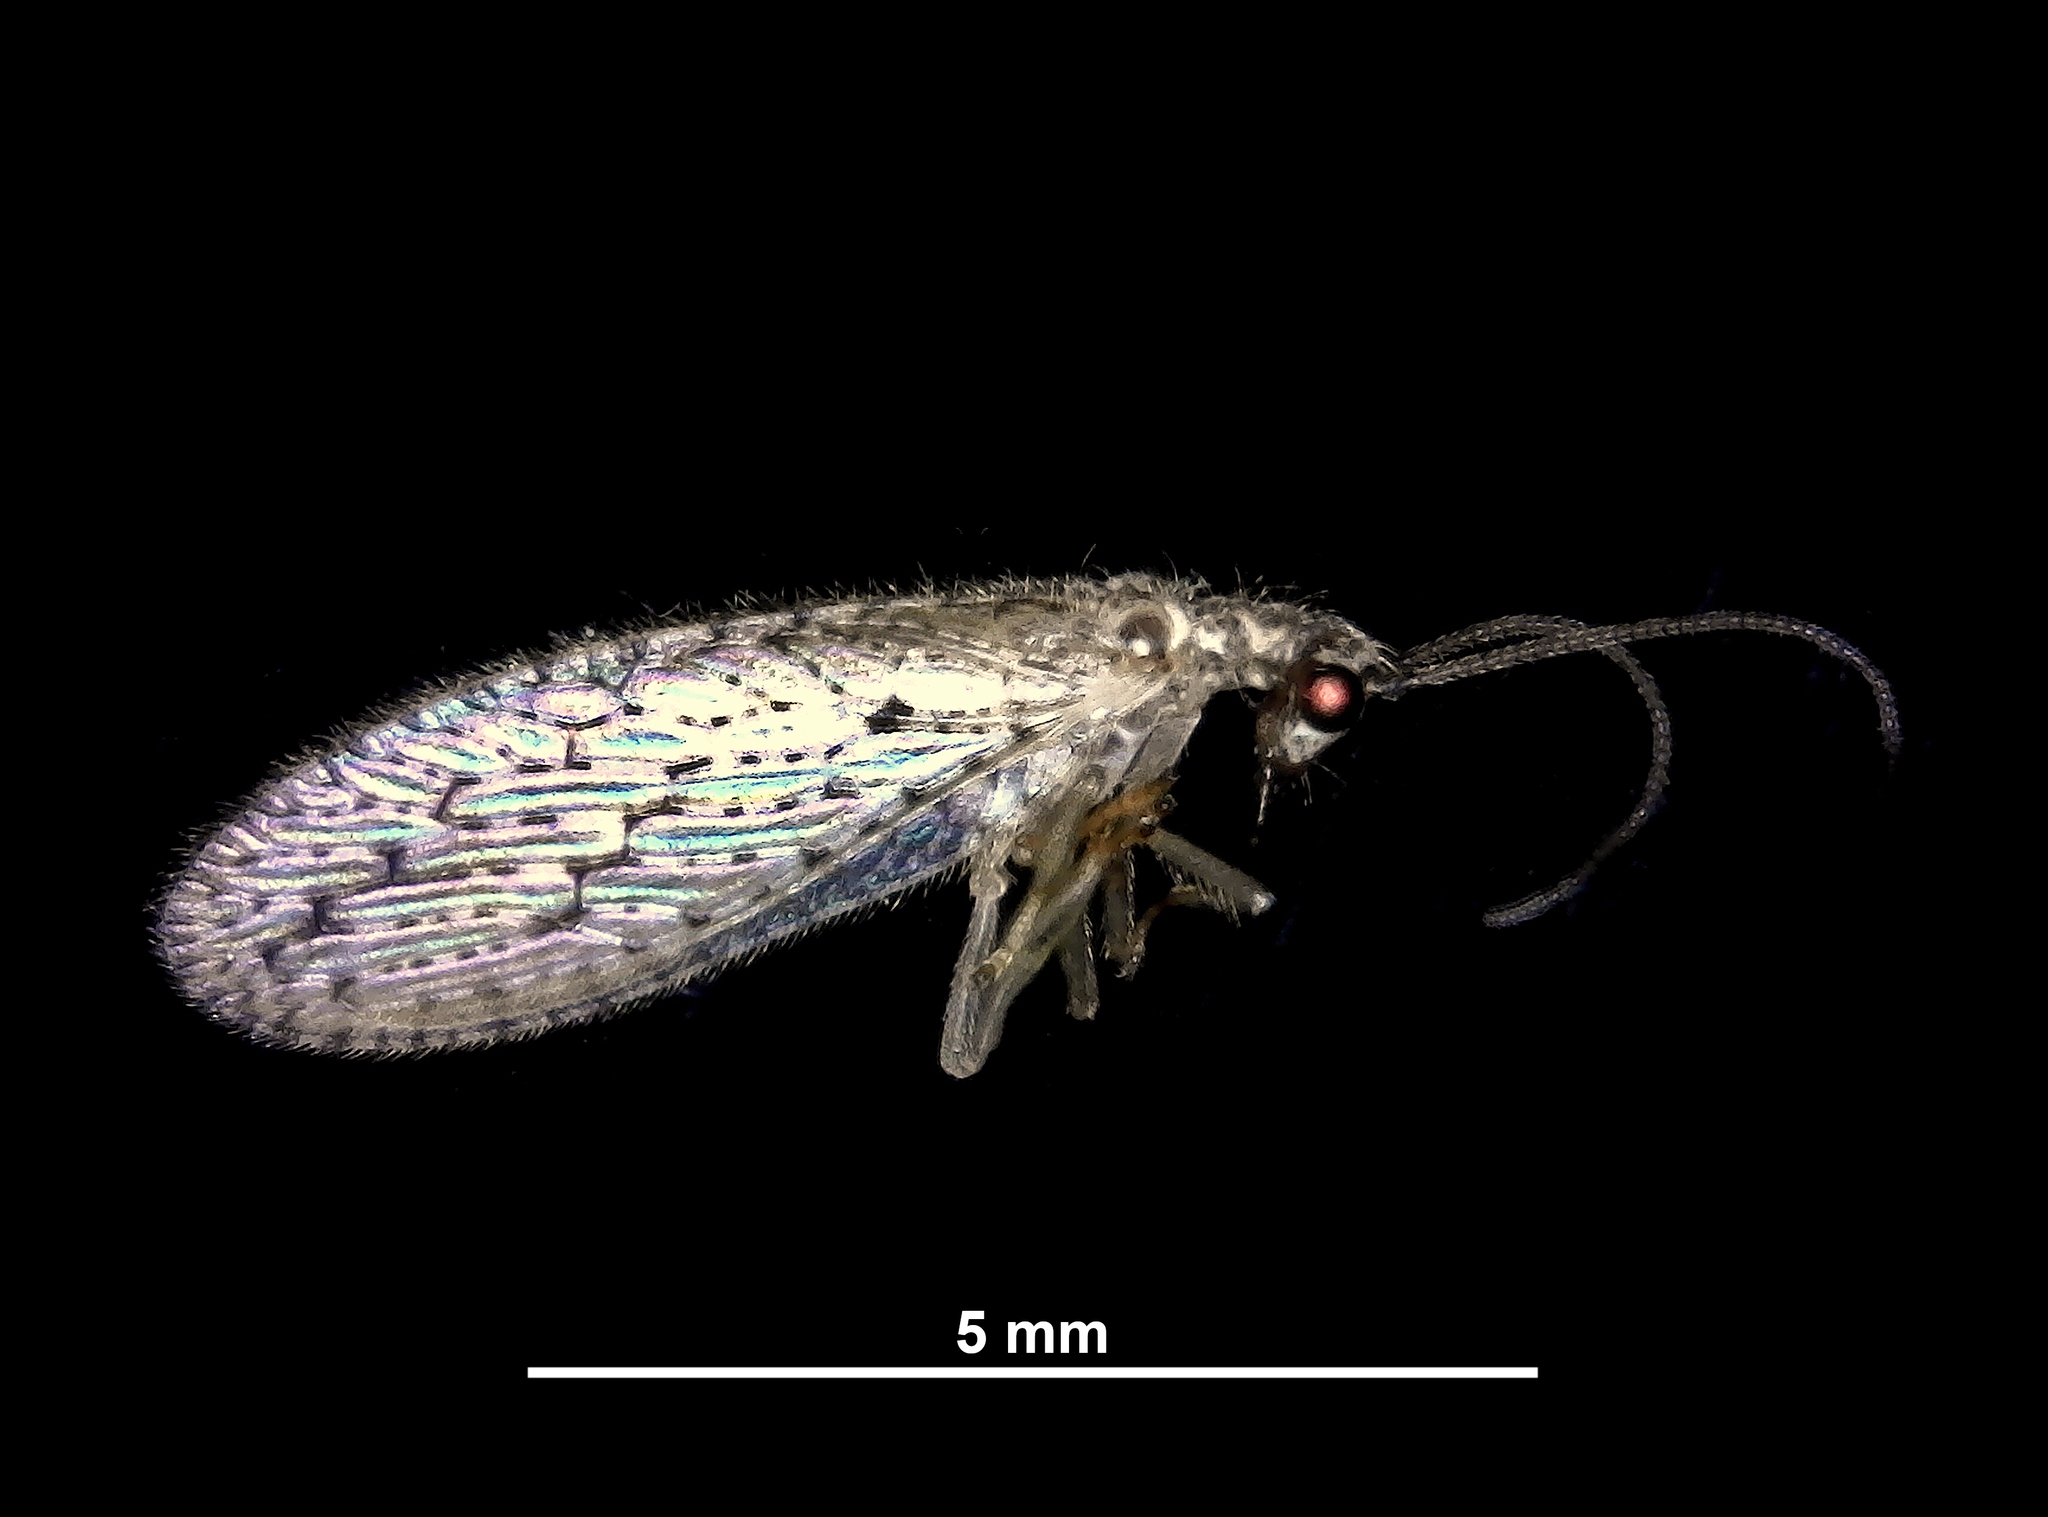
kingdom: Animalia
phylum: Arthropoda
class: Insecta
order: Neuroptera
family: Hemerobiidae
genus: Micromus
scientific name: Micromus tasmaniae
